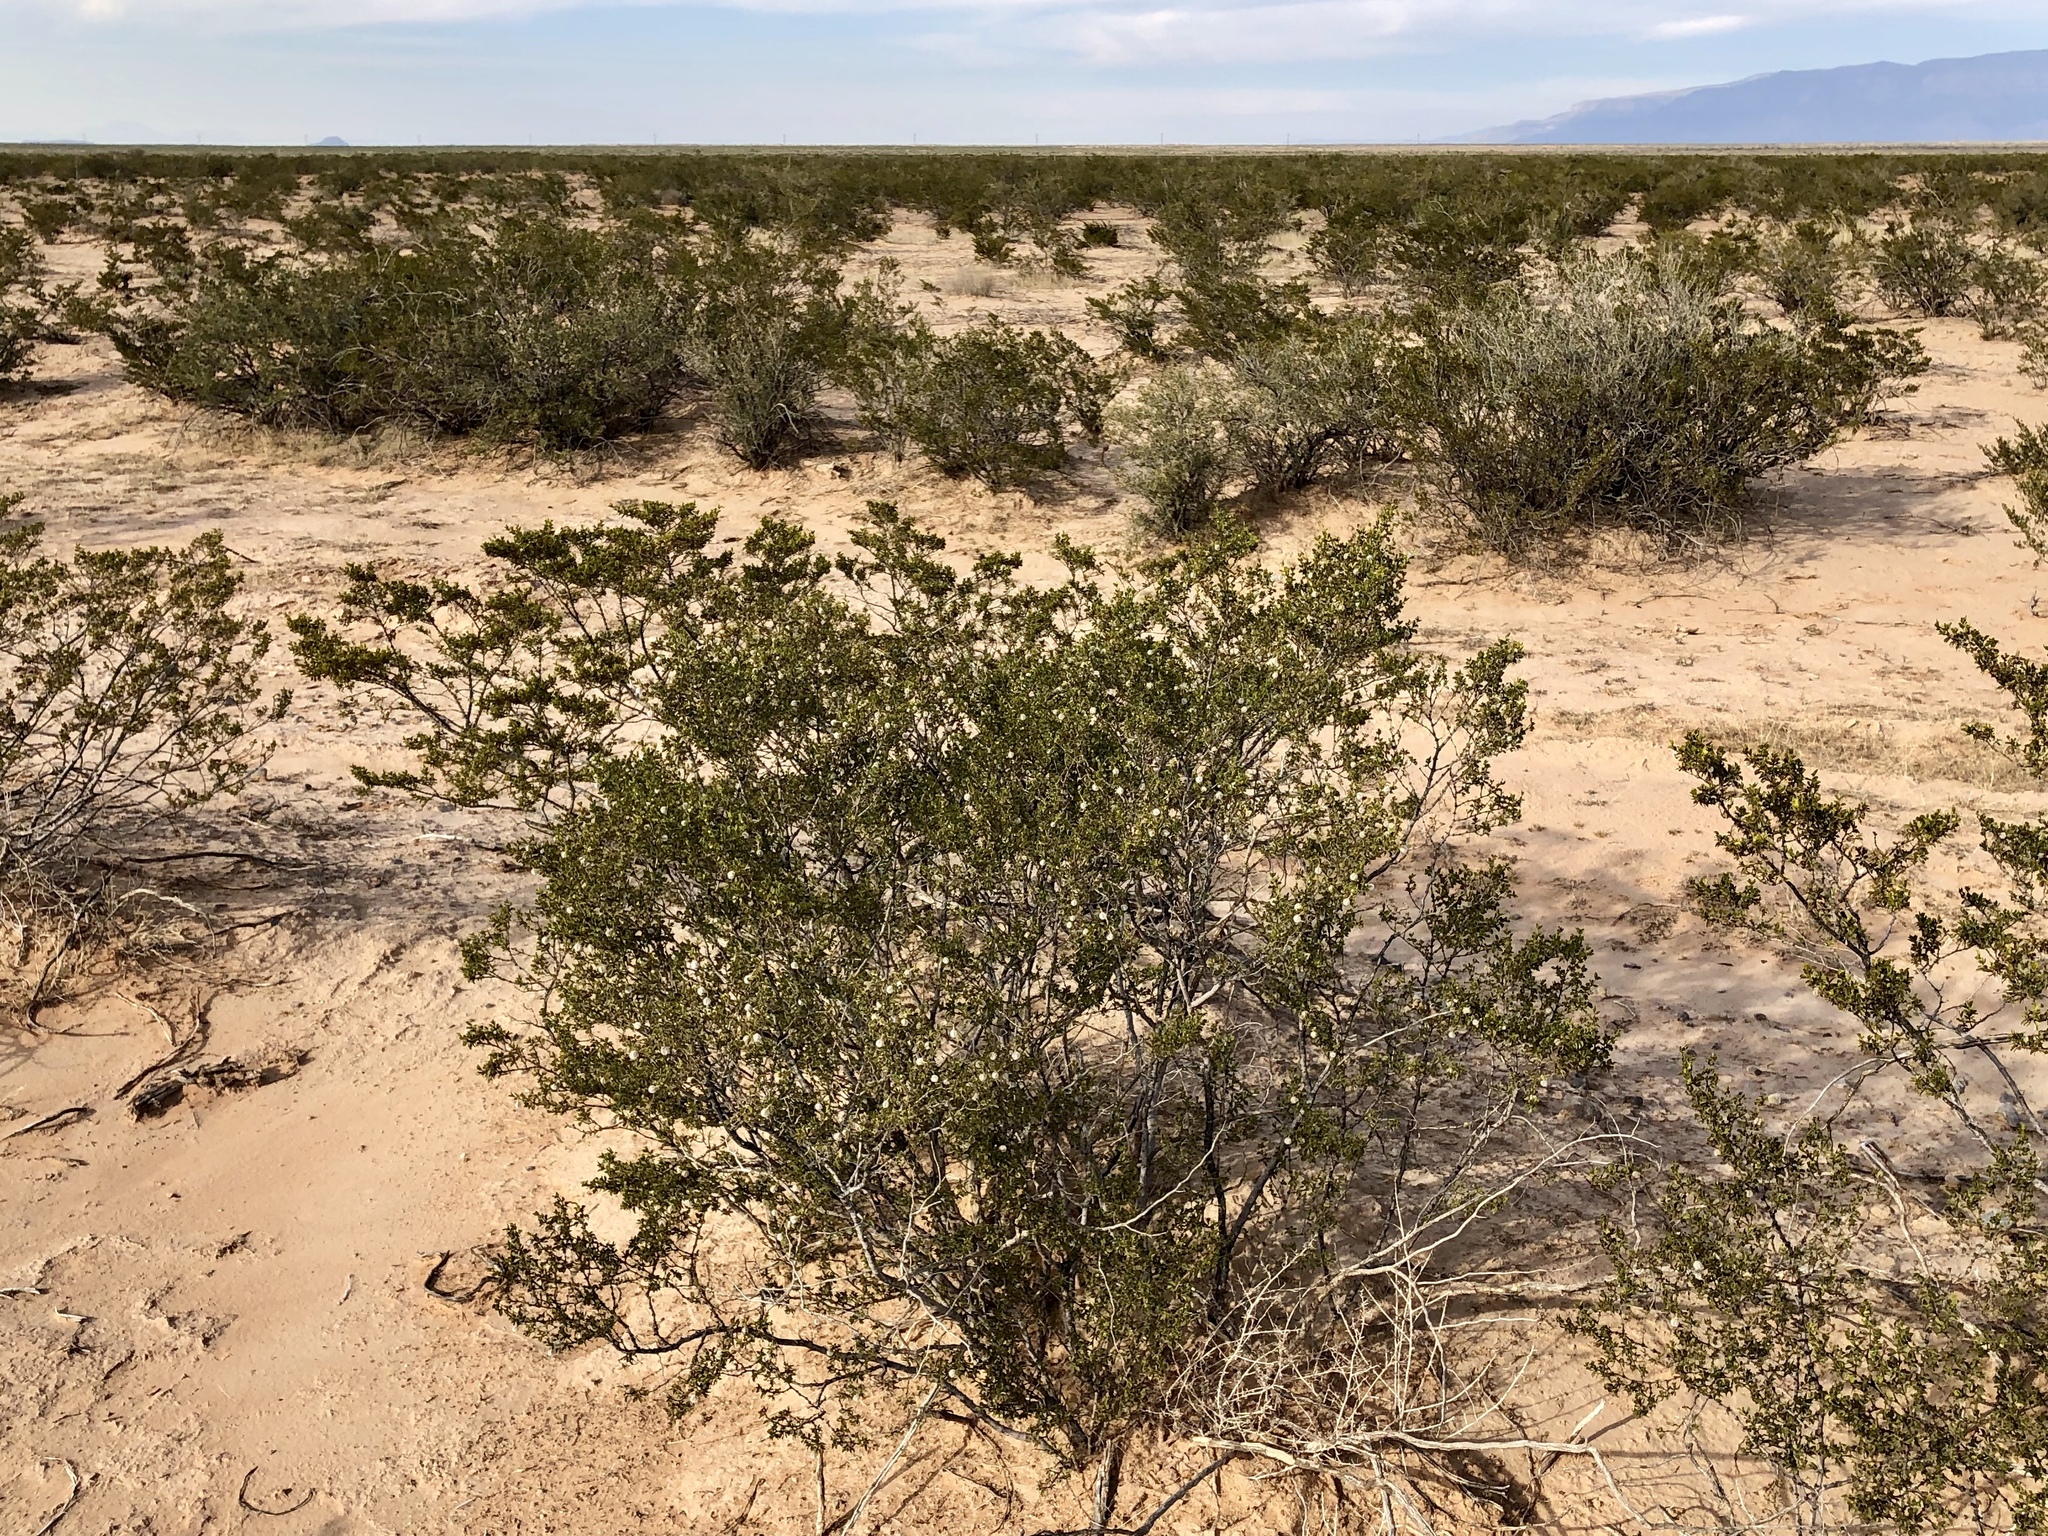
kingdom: Plantae
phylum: Tracheophyta
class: Magnoliopsida
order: Zygophyllales
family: Zygophyllaceae
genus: Larrea
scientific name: Larrea tridentata
